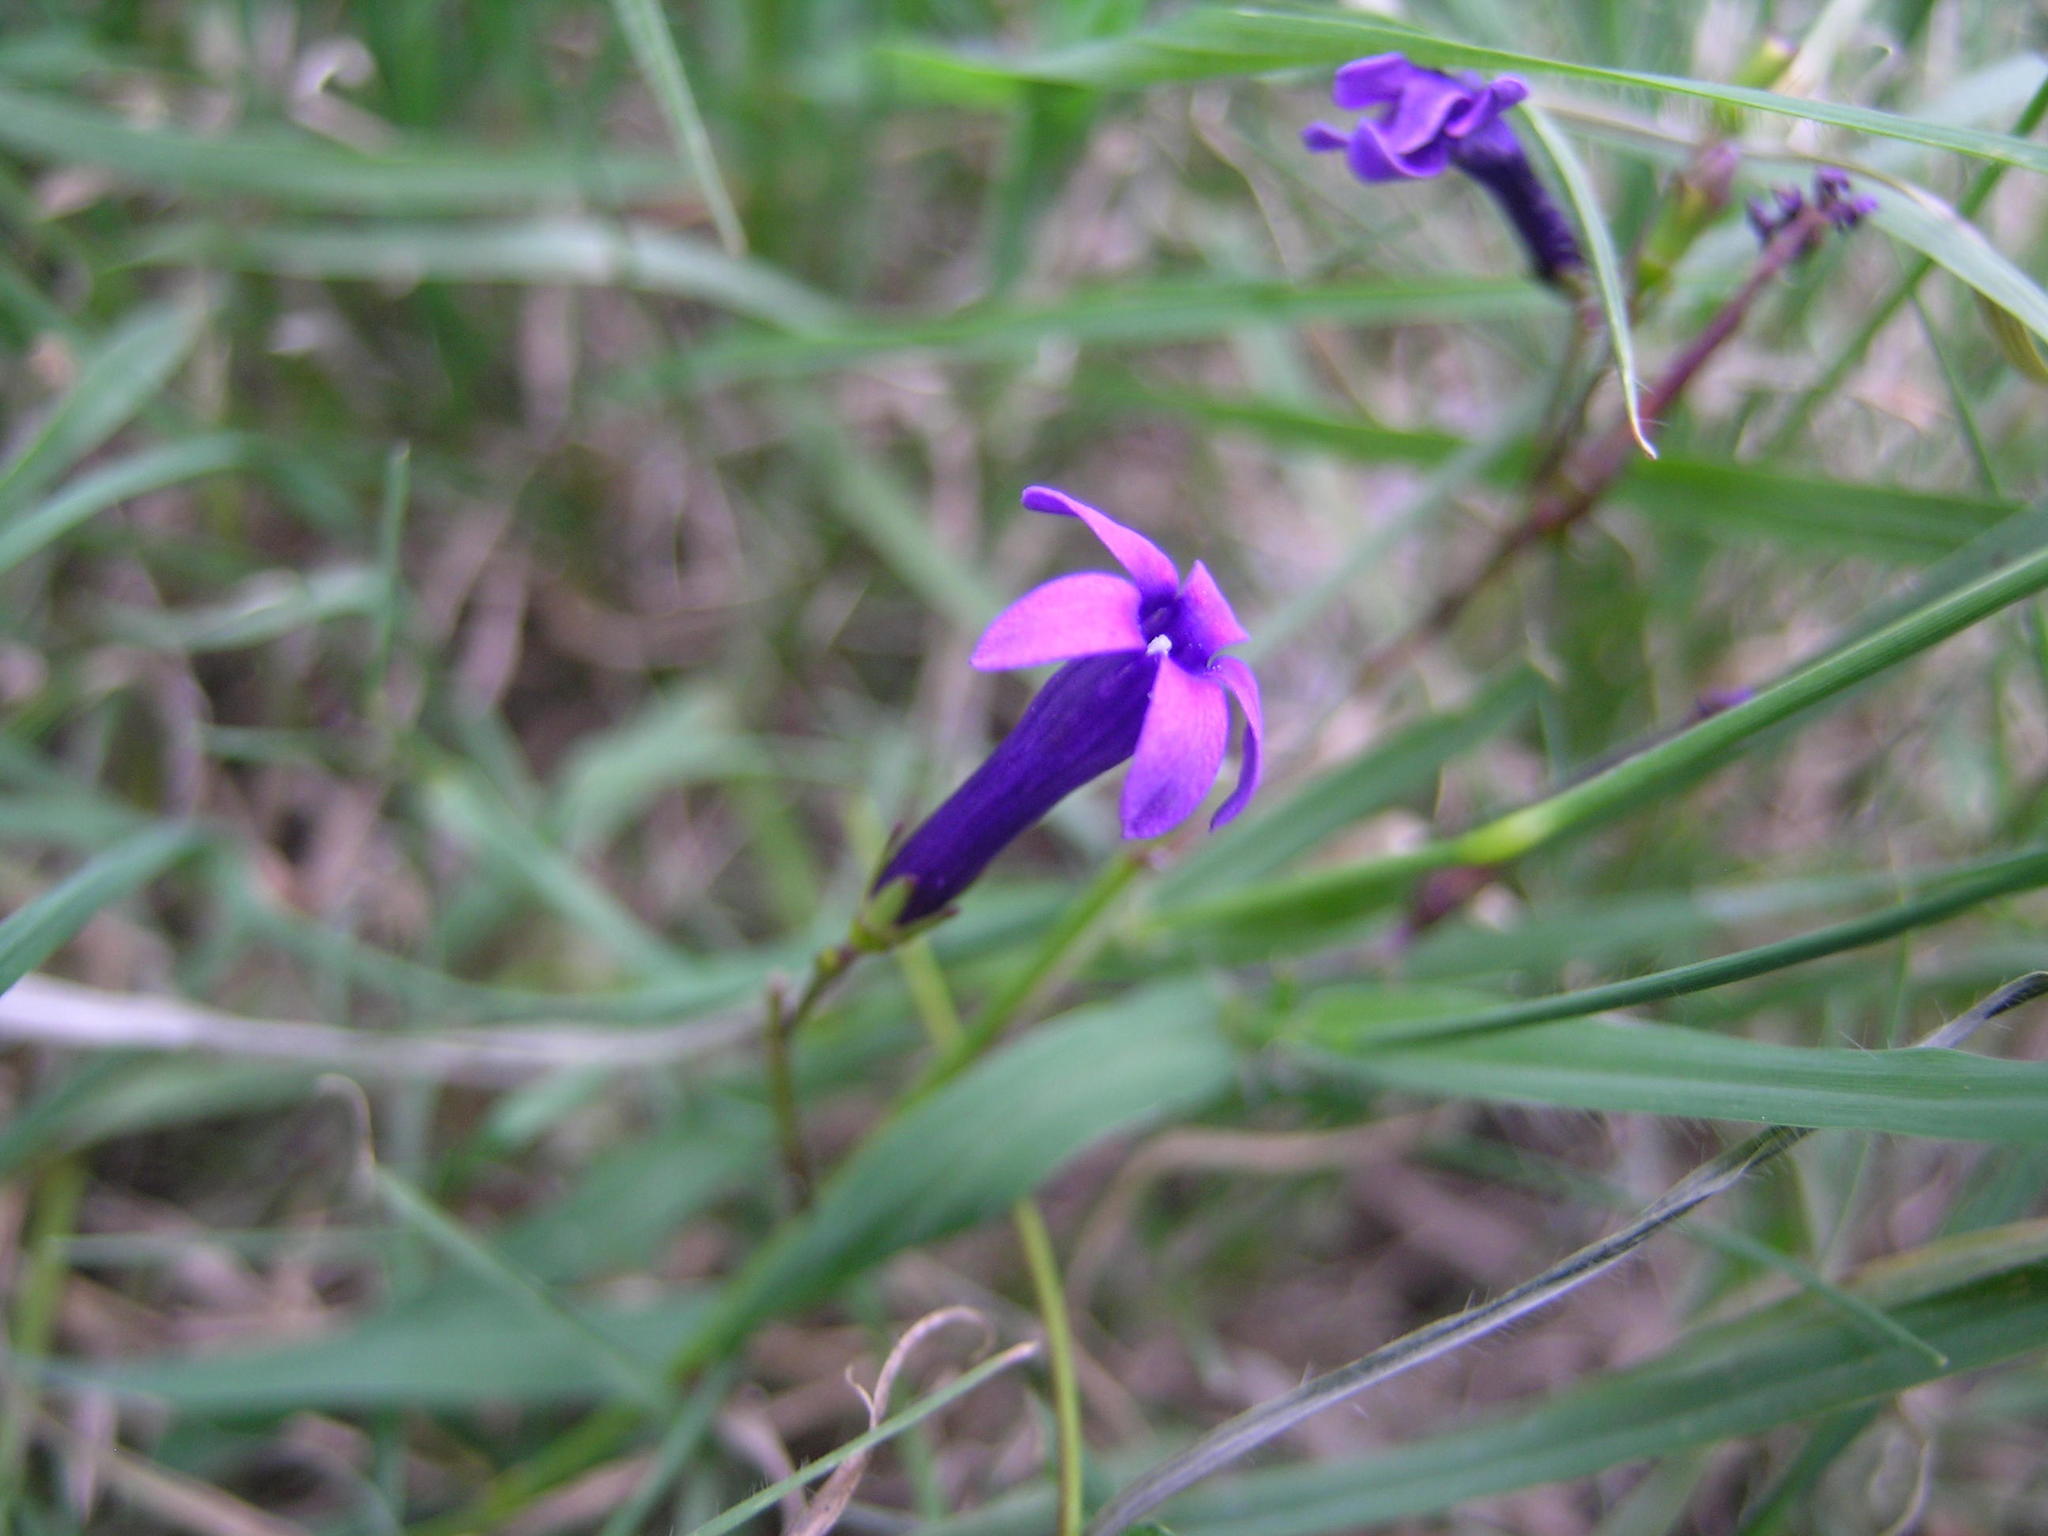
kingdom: Plantae
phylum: Tracheophyta
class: Magnoliopsida
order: Asterales
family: Campanulaceae
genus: Siphocodon
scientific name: Siphocodon spartioides
